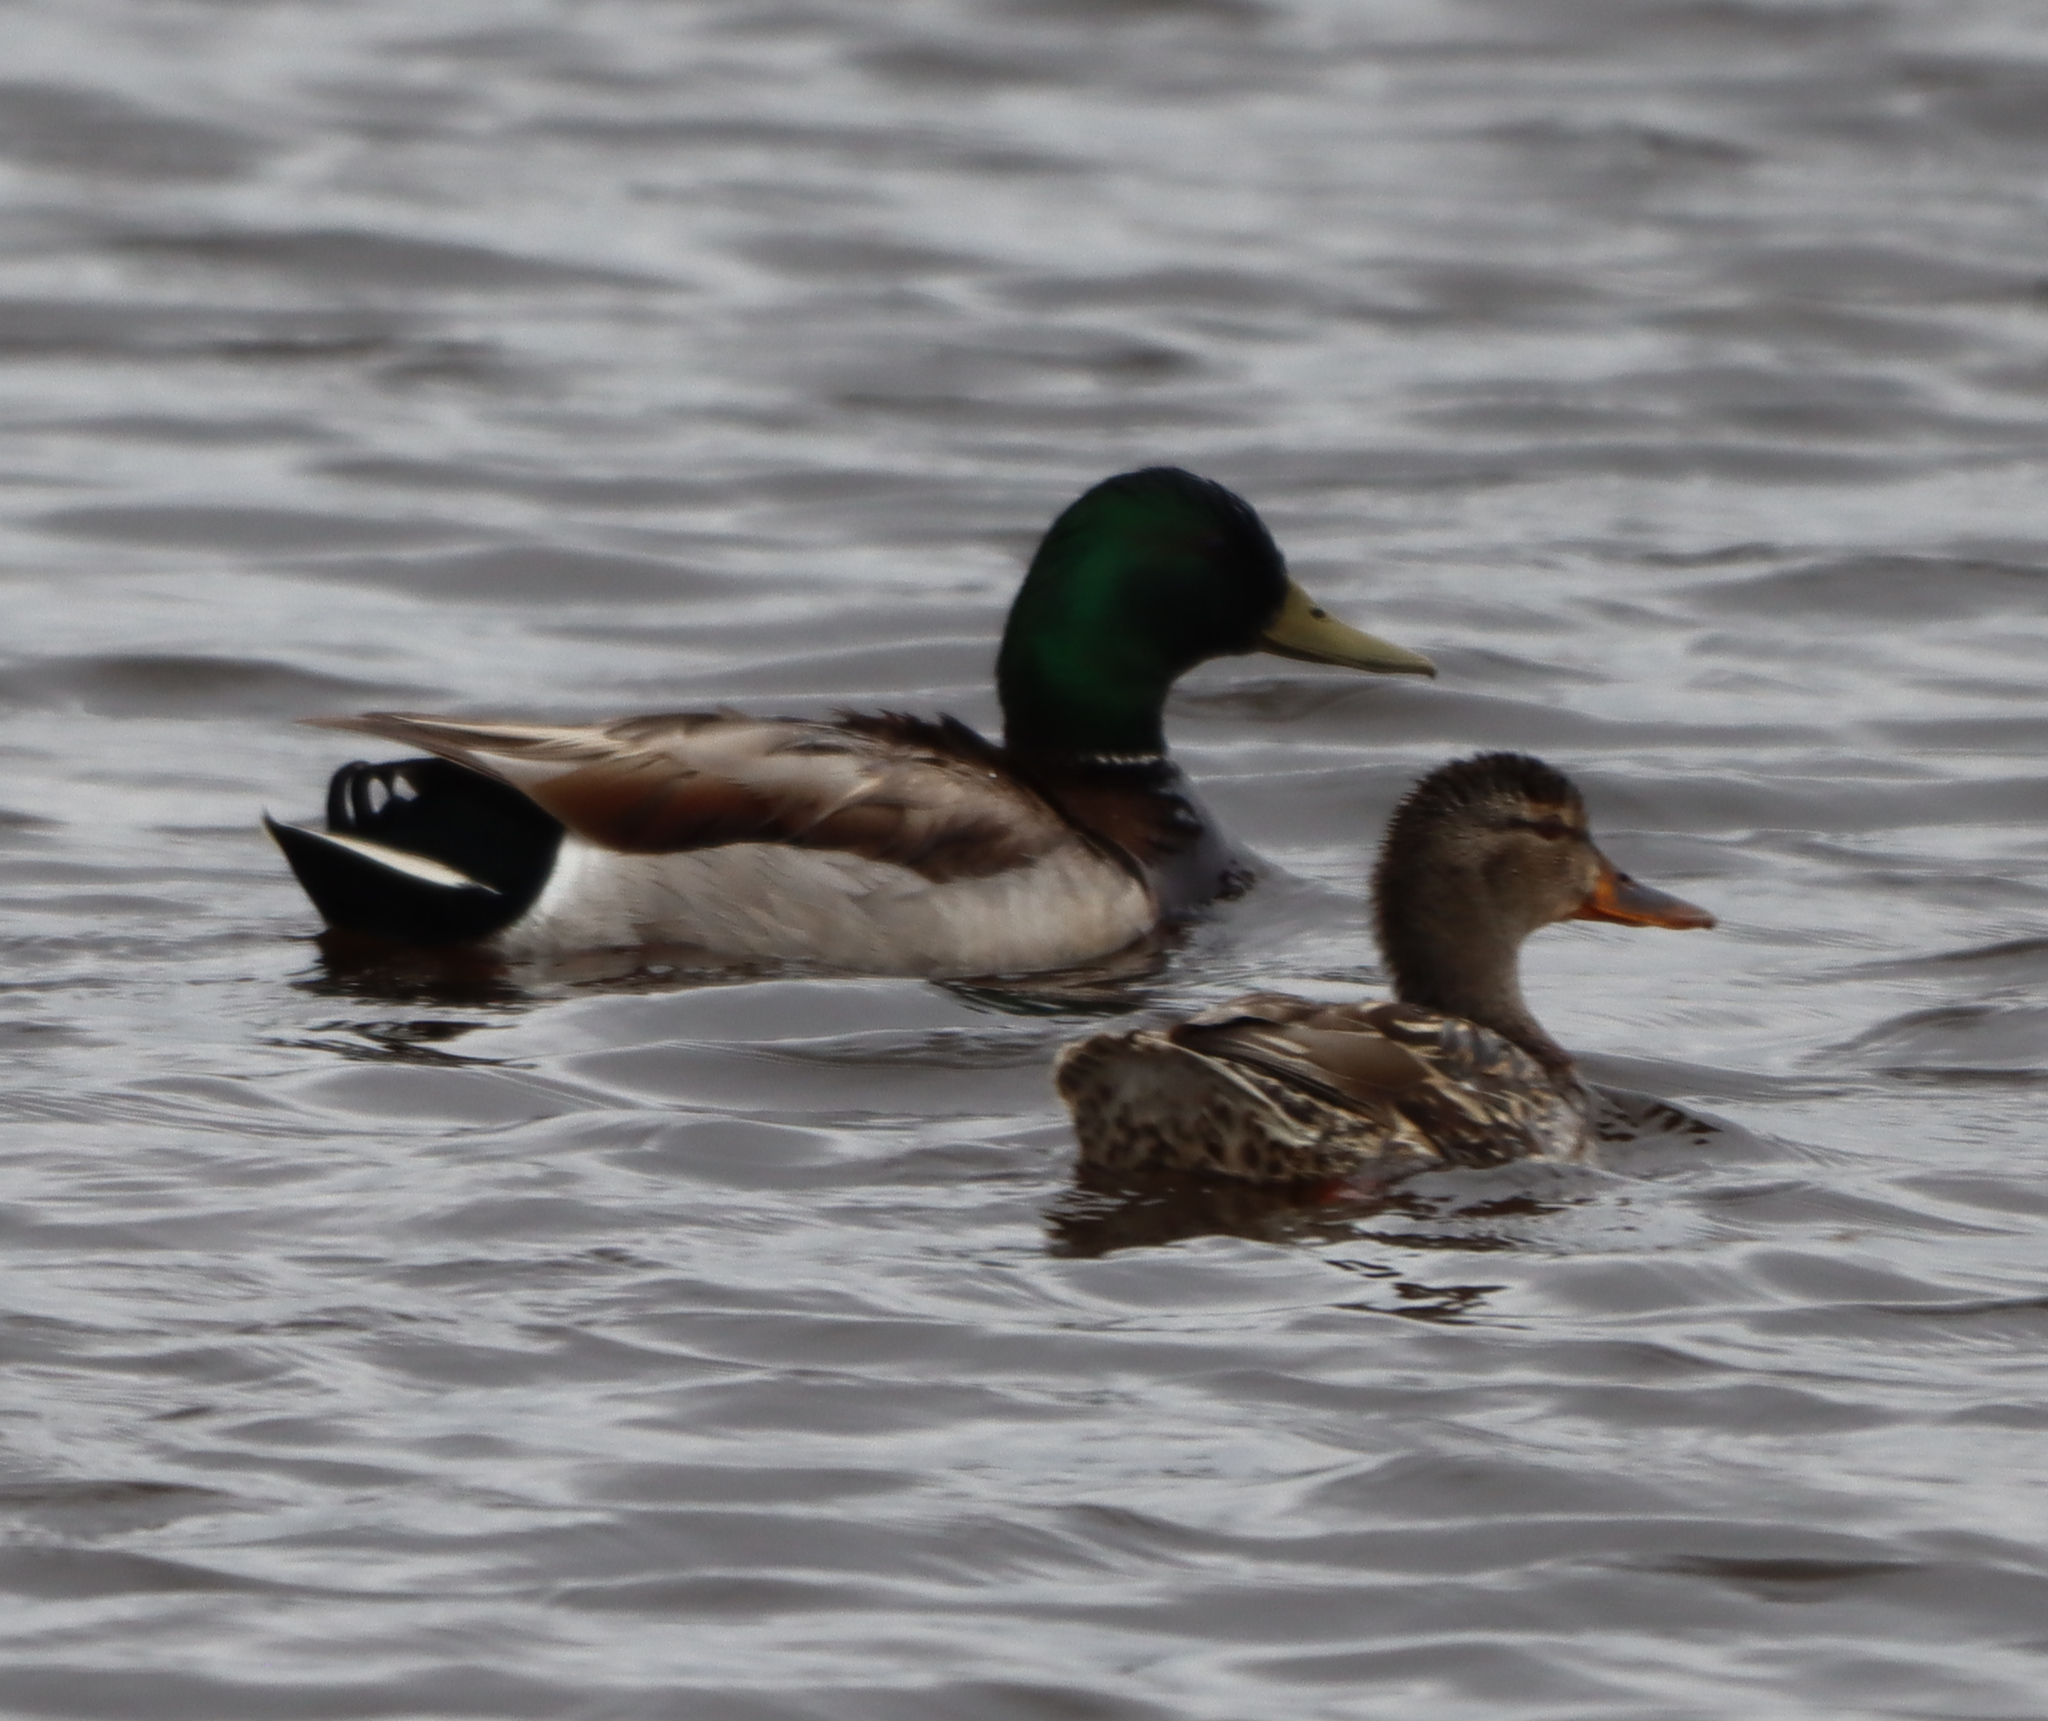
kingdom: Animalia
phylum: Chordata
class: Aves
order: Anseriformes
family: Anatidae
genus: Anas
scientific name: Anas platyrhynchos
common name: Mallard
